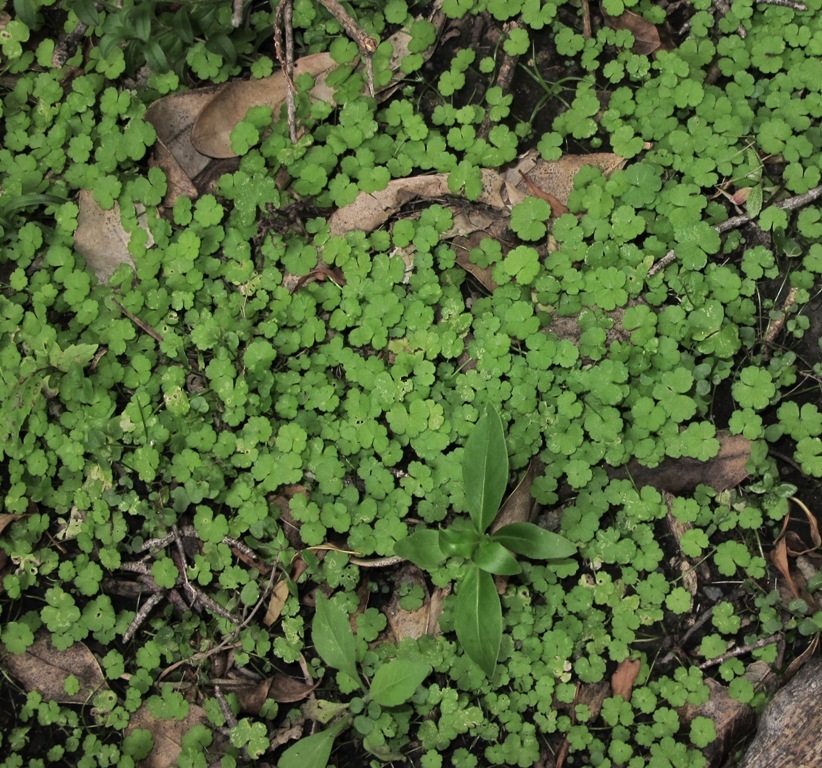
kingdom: Plantae
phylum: Tracheophyta
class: Magnoliopsida
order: Apiales
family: Araliaceae
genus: Hydrocotyle
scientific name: Hydrocotyle heteromeria
